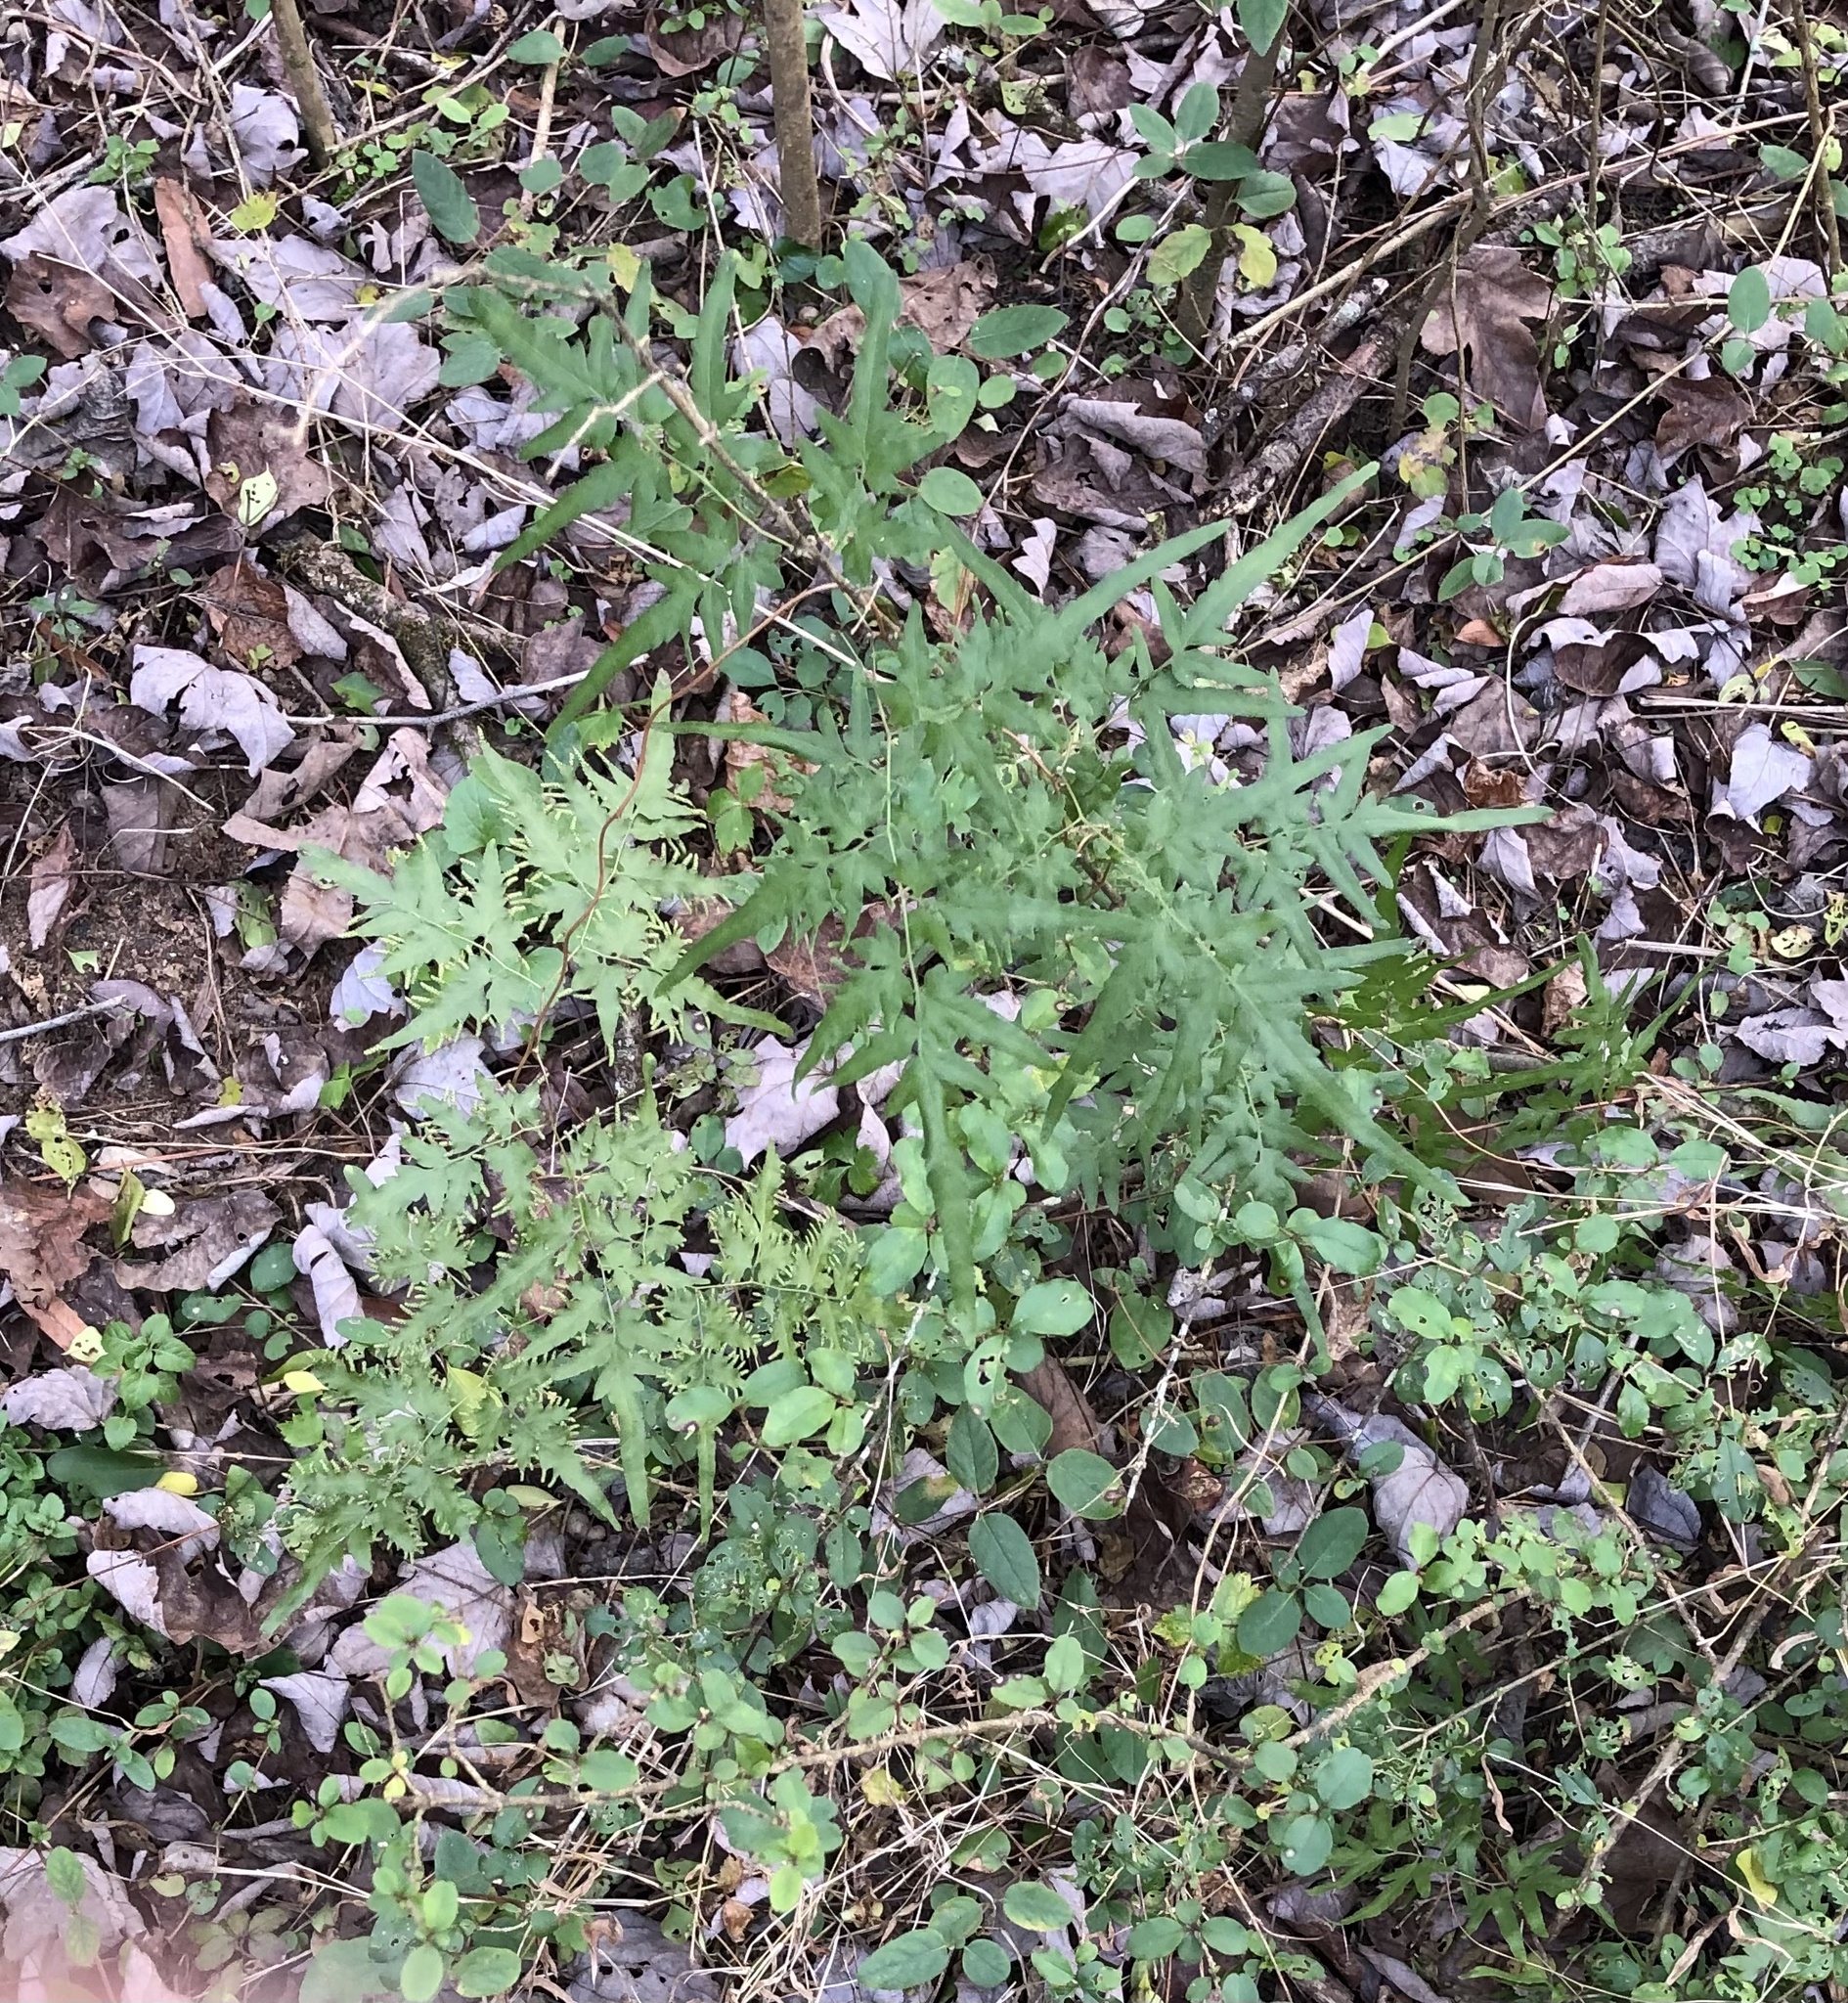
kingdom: Plantae
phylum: Tracheophyta
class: Polypodiopsida
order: Schizaeales
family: Lygodiaceae
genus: Lygodium
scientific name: Lygodium japonicum
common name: Japanese climbing fern
